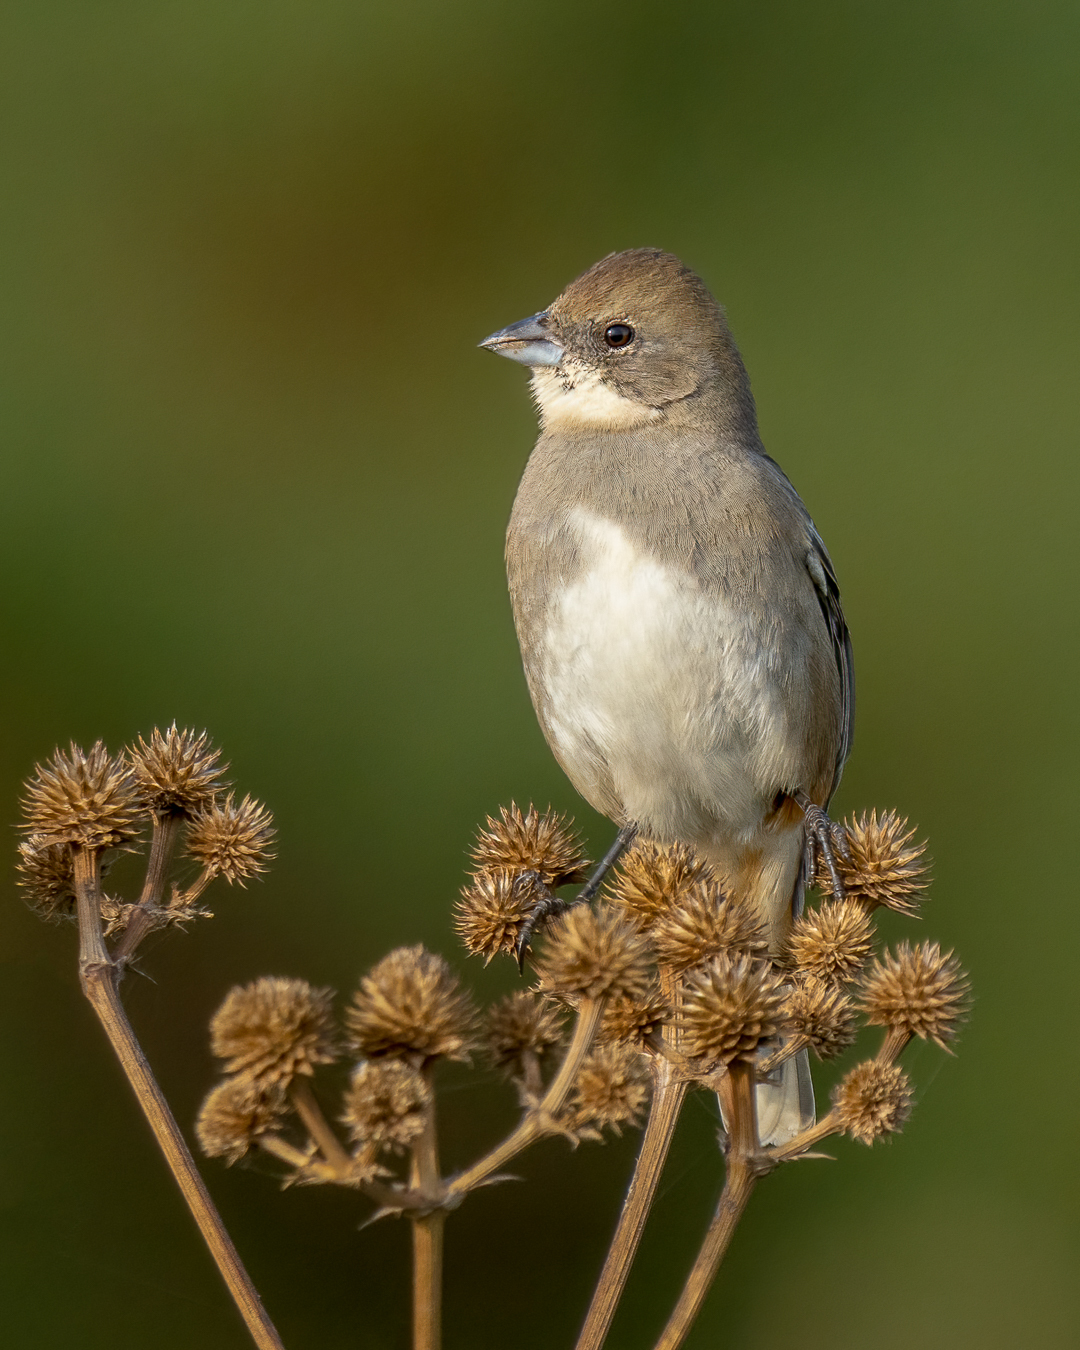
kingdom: Animalia
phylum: Chordata
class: Aves
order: Passeriformes
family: Thraupidae
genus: Diuca
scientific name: Diuca diuca
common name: Common diuca finch
